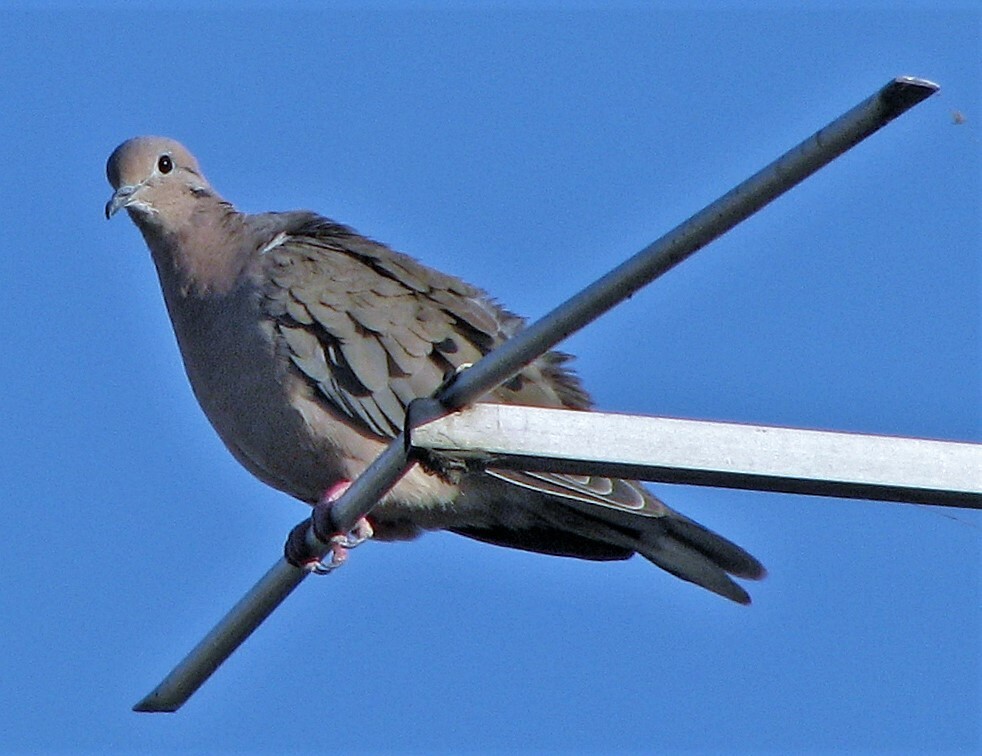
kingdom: Animalia
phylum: Chordata
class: Aves
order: Columbiformes
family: Columbidae
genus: Zenaida
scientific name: Zenaida auriculata
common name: Eared dove
